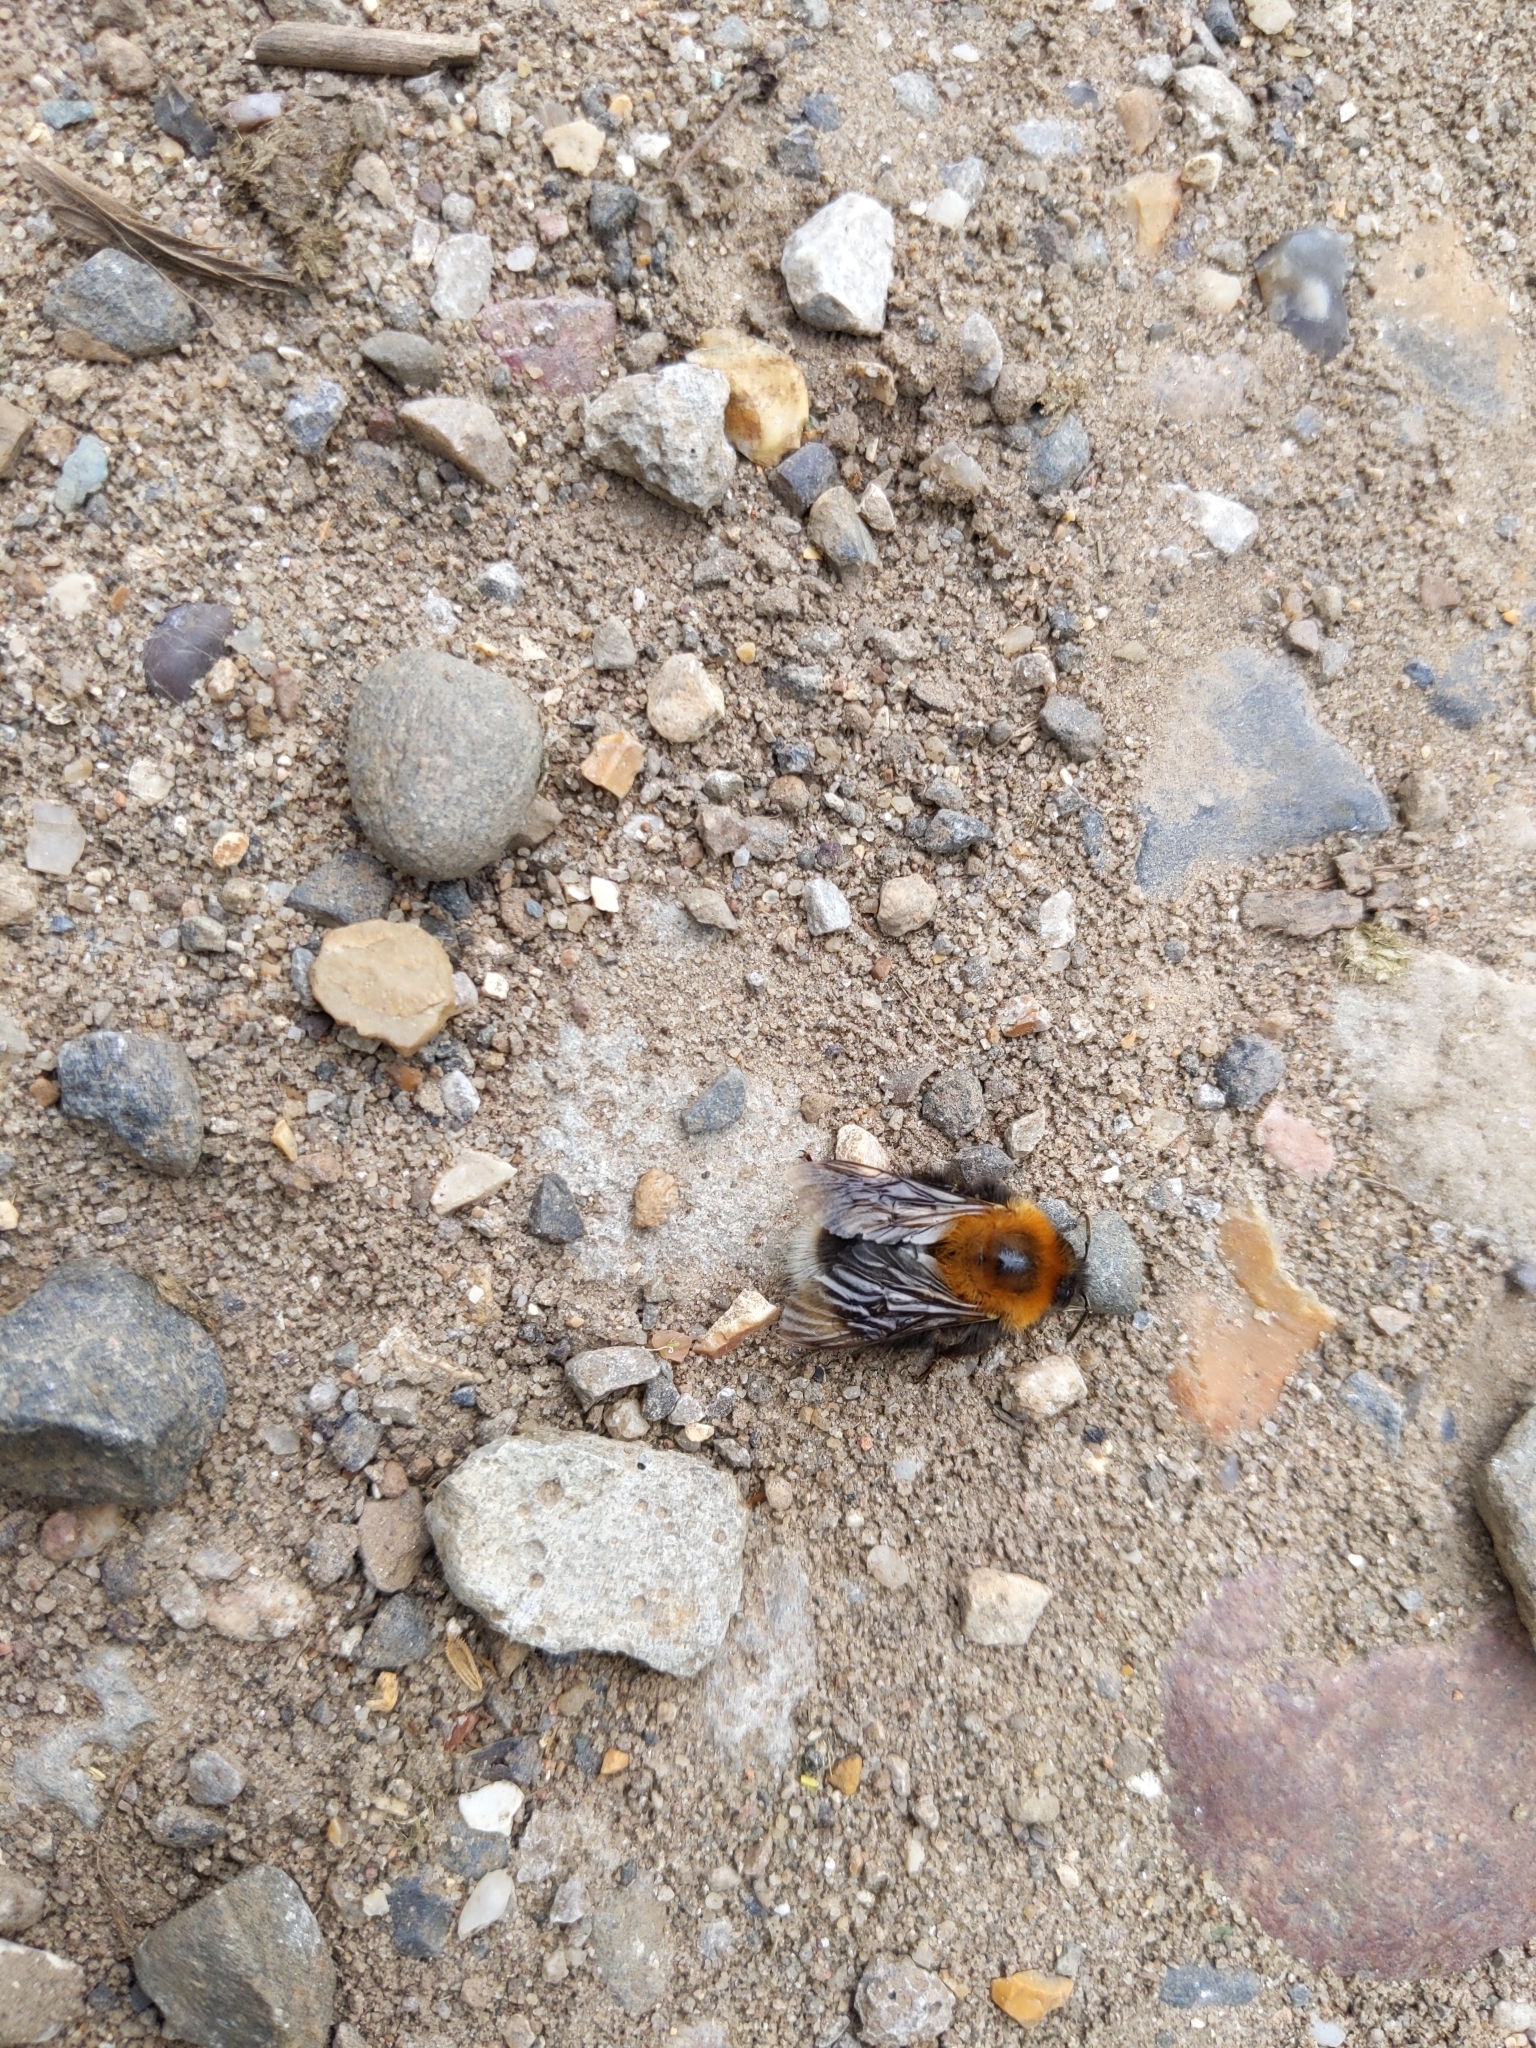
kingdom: Animalia
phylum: Arthropoda
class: Insecta
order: Hymenoptera
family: Apidae
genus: Bombus
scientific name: Bombus hypnorum
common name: New garden bumblebee
